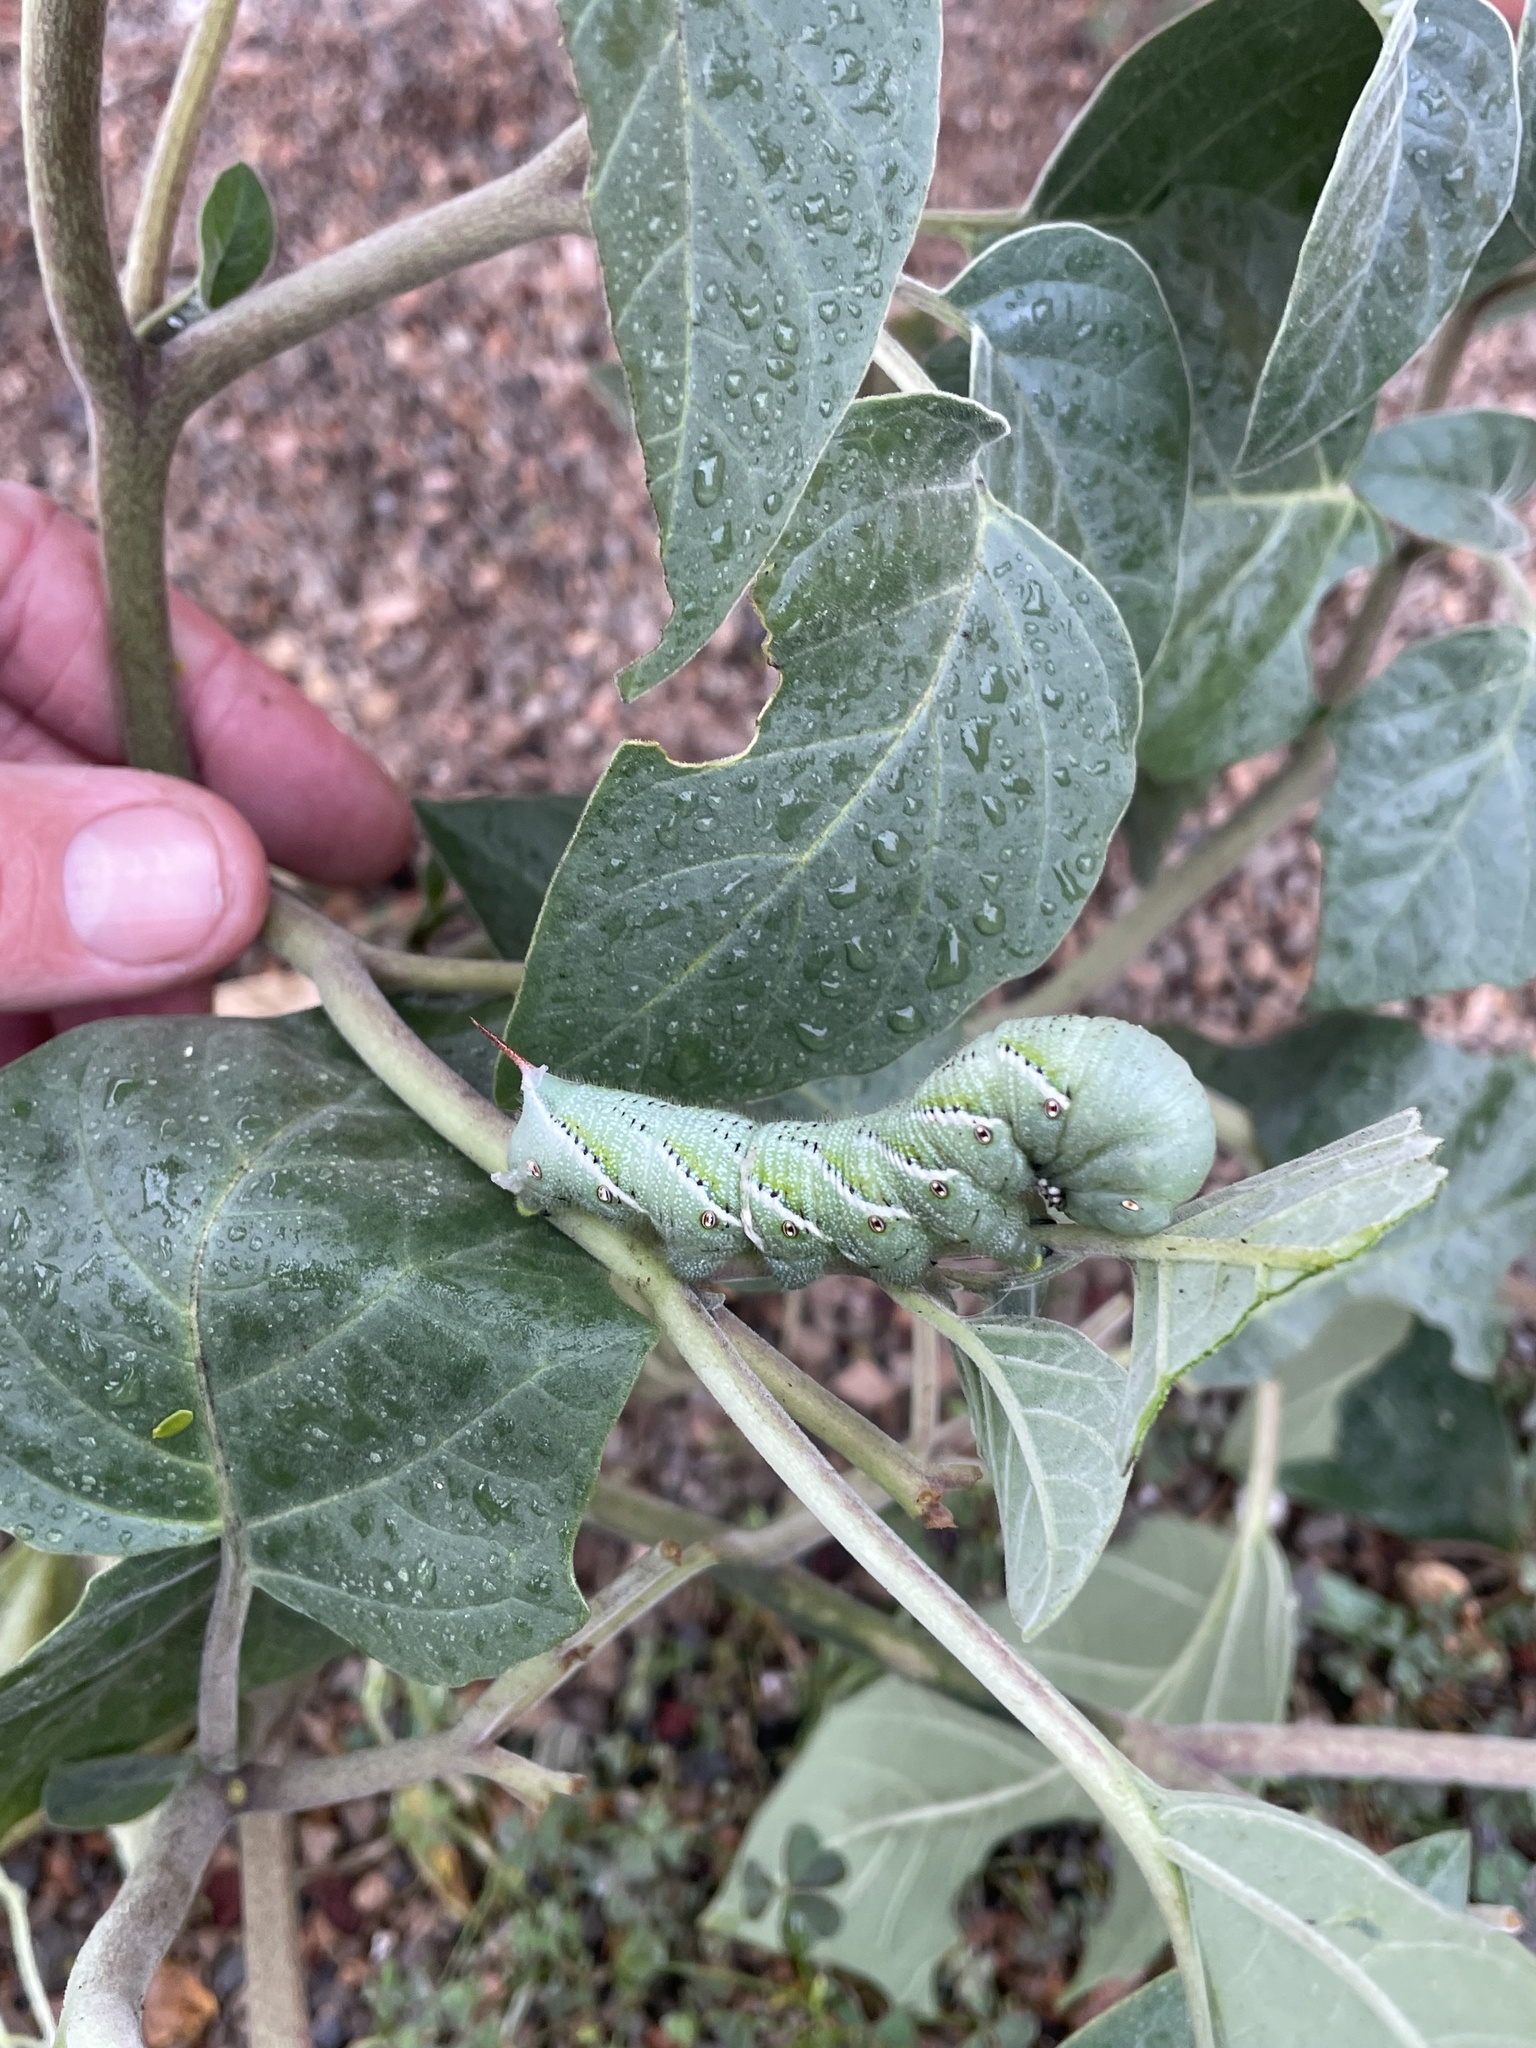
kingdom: Animalia
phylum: Arthropoda
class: Insecta
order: Lepidoptera
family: Sphingidae
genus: Manduca
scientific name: Manduca sexta
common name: Carolina sphinx
